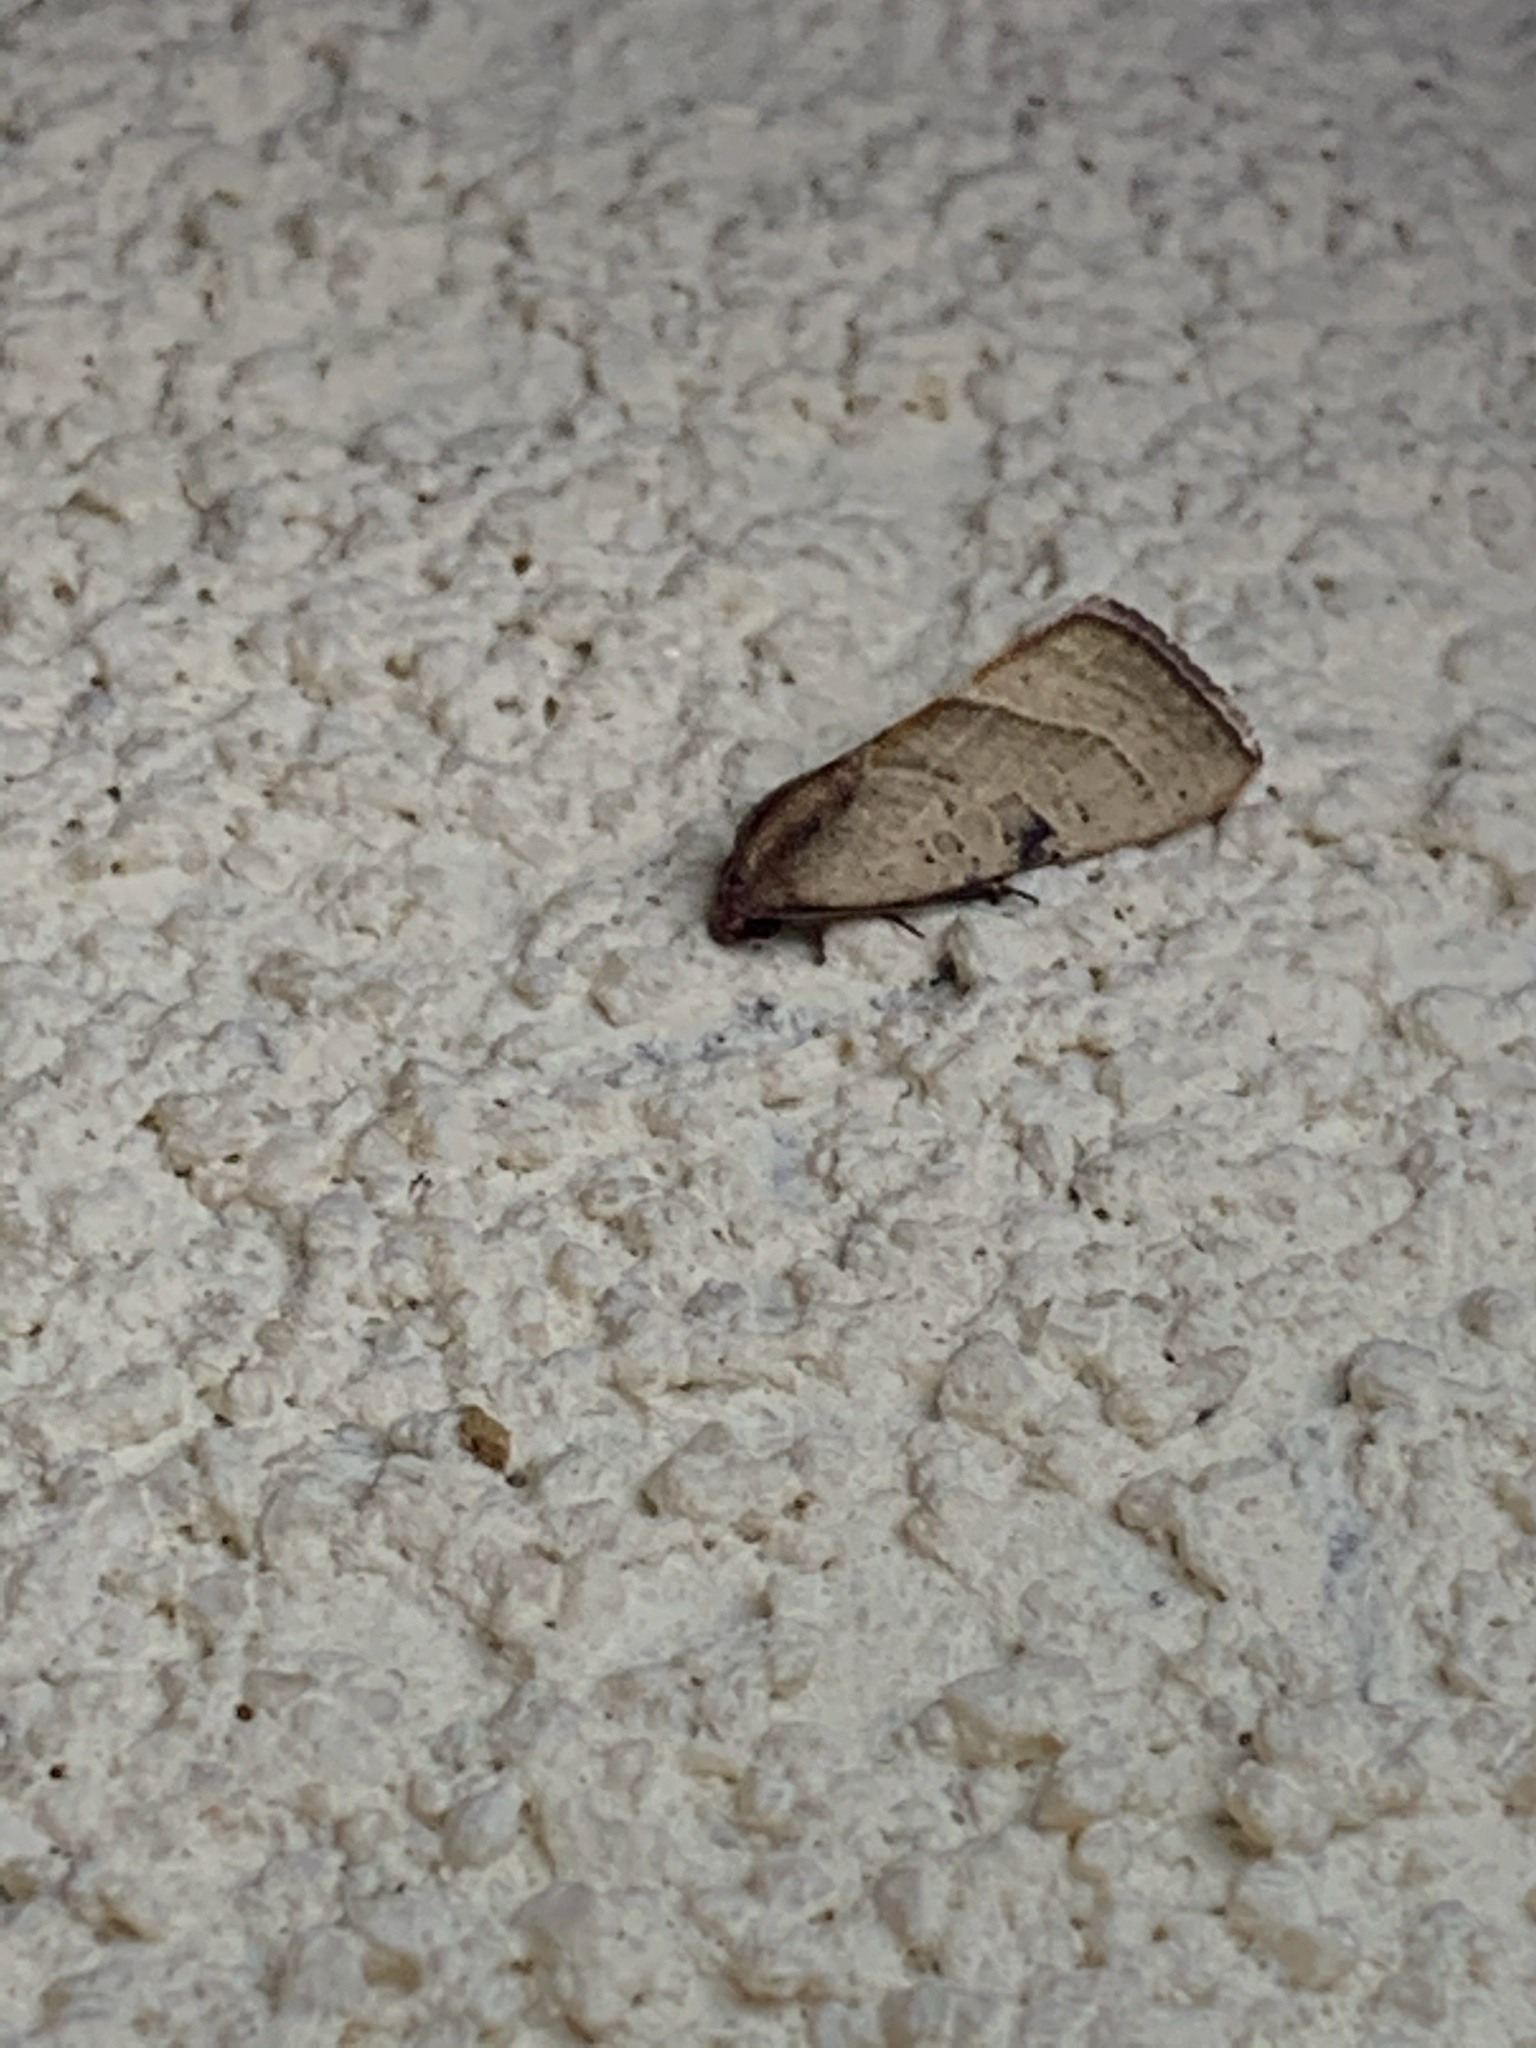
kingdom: Animalia
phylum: Arthropoda
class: Insecta
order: Lepidoptera
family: Noctuidae
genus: Galgula
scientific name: Galgula partita
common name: Wedgeling
